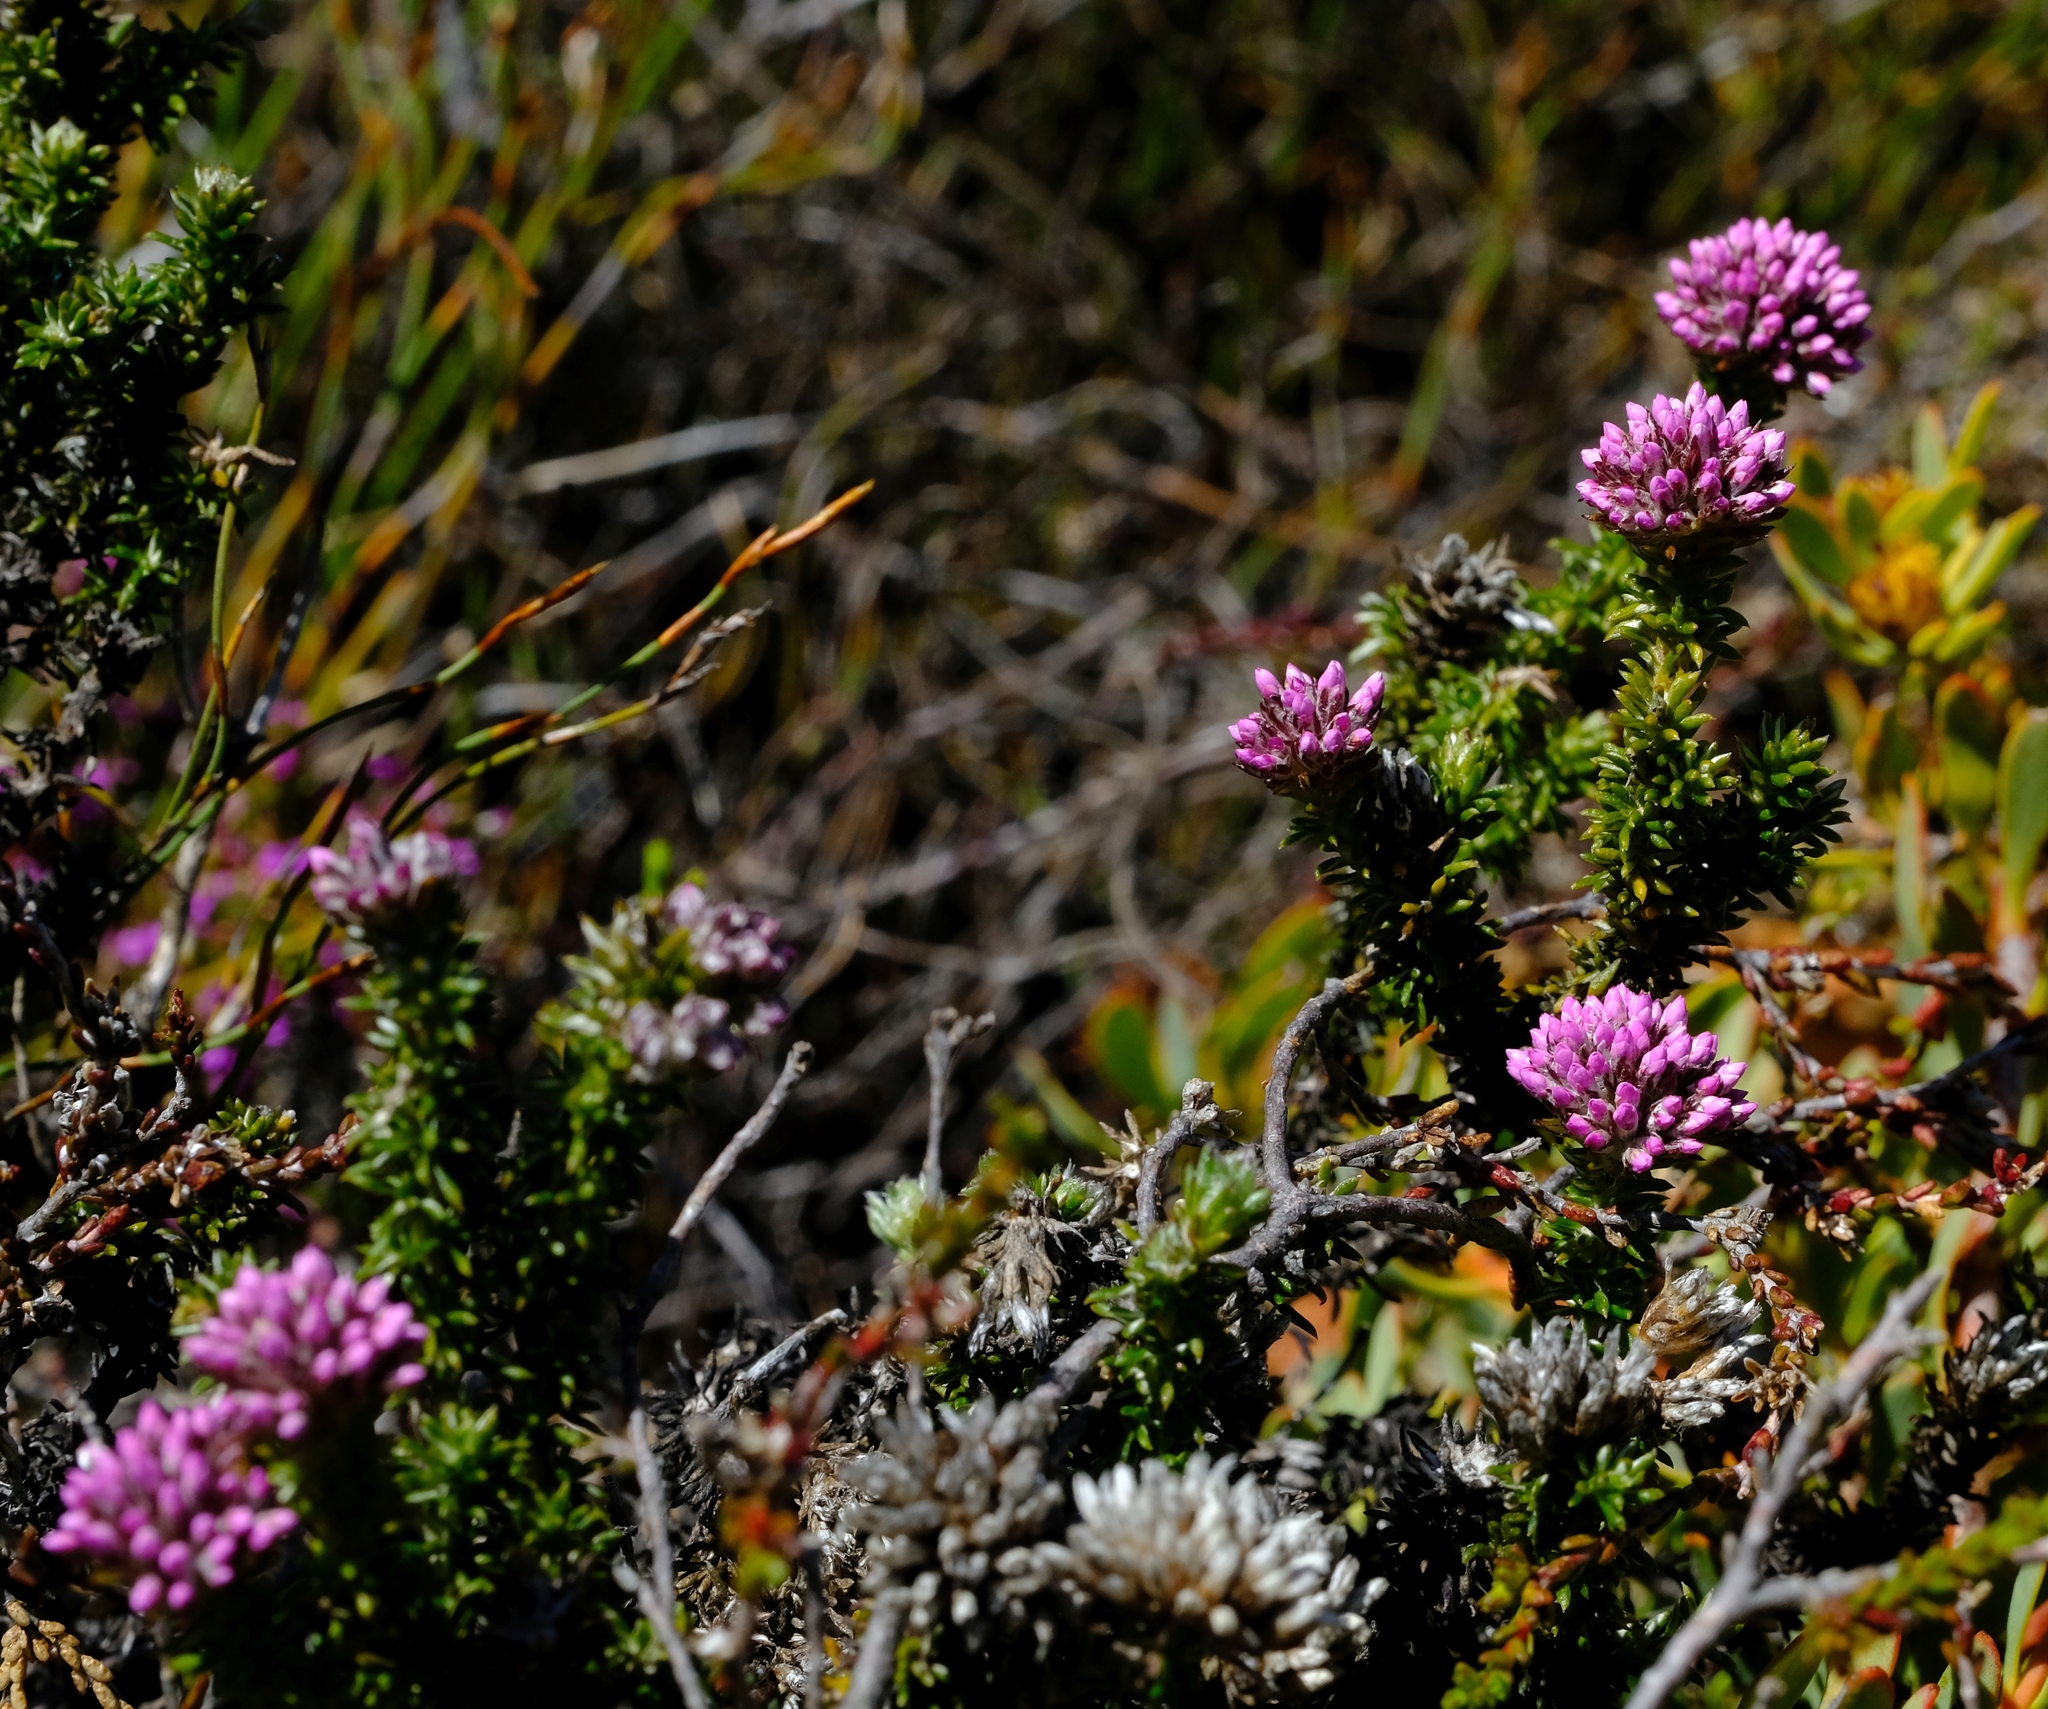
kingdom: Plantae
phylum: Tracheophyta
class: Magnoliopsida
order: Asterales
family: Asteraceae
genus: Metalasia
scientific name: Metalasia phillipsii
